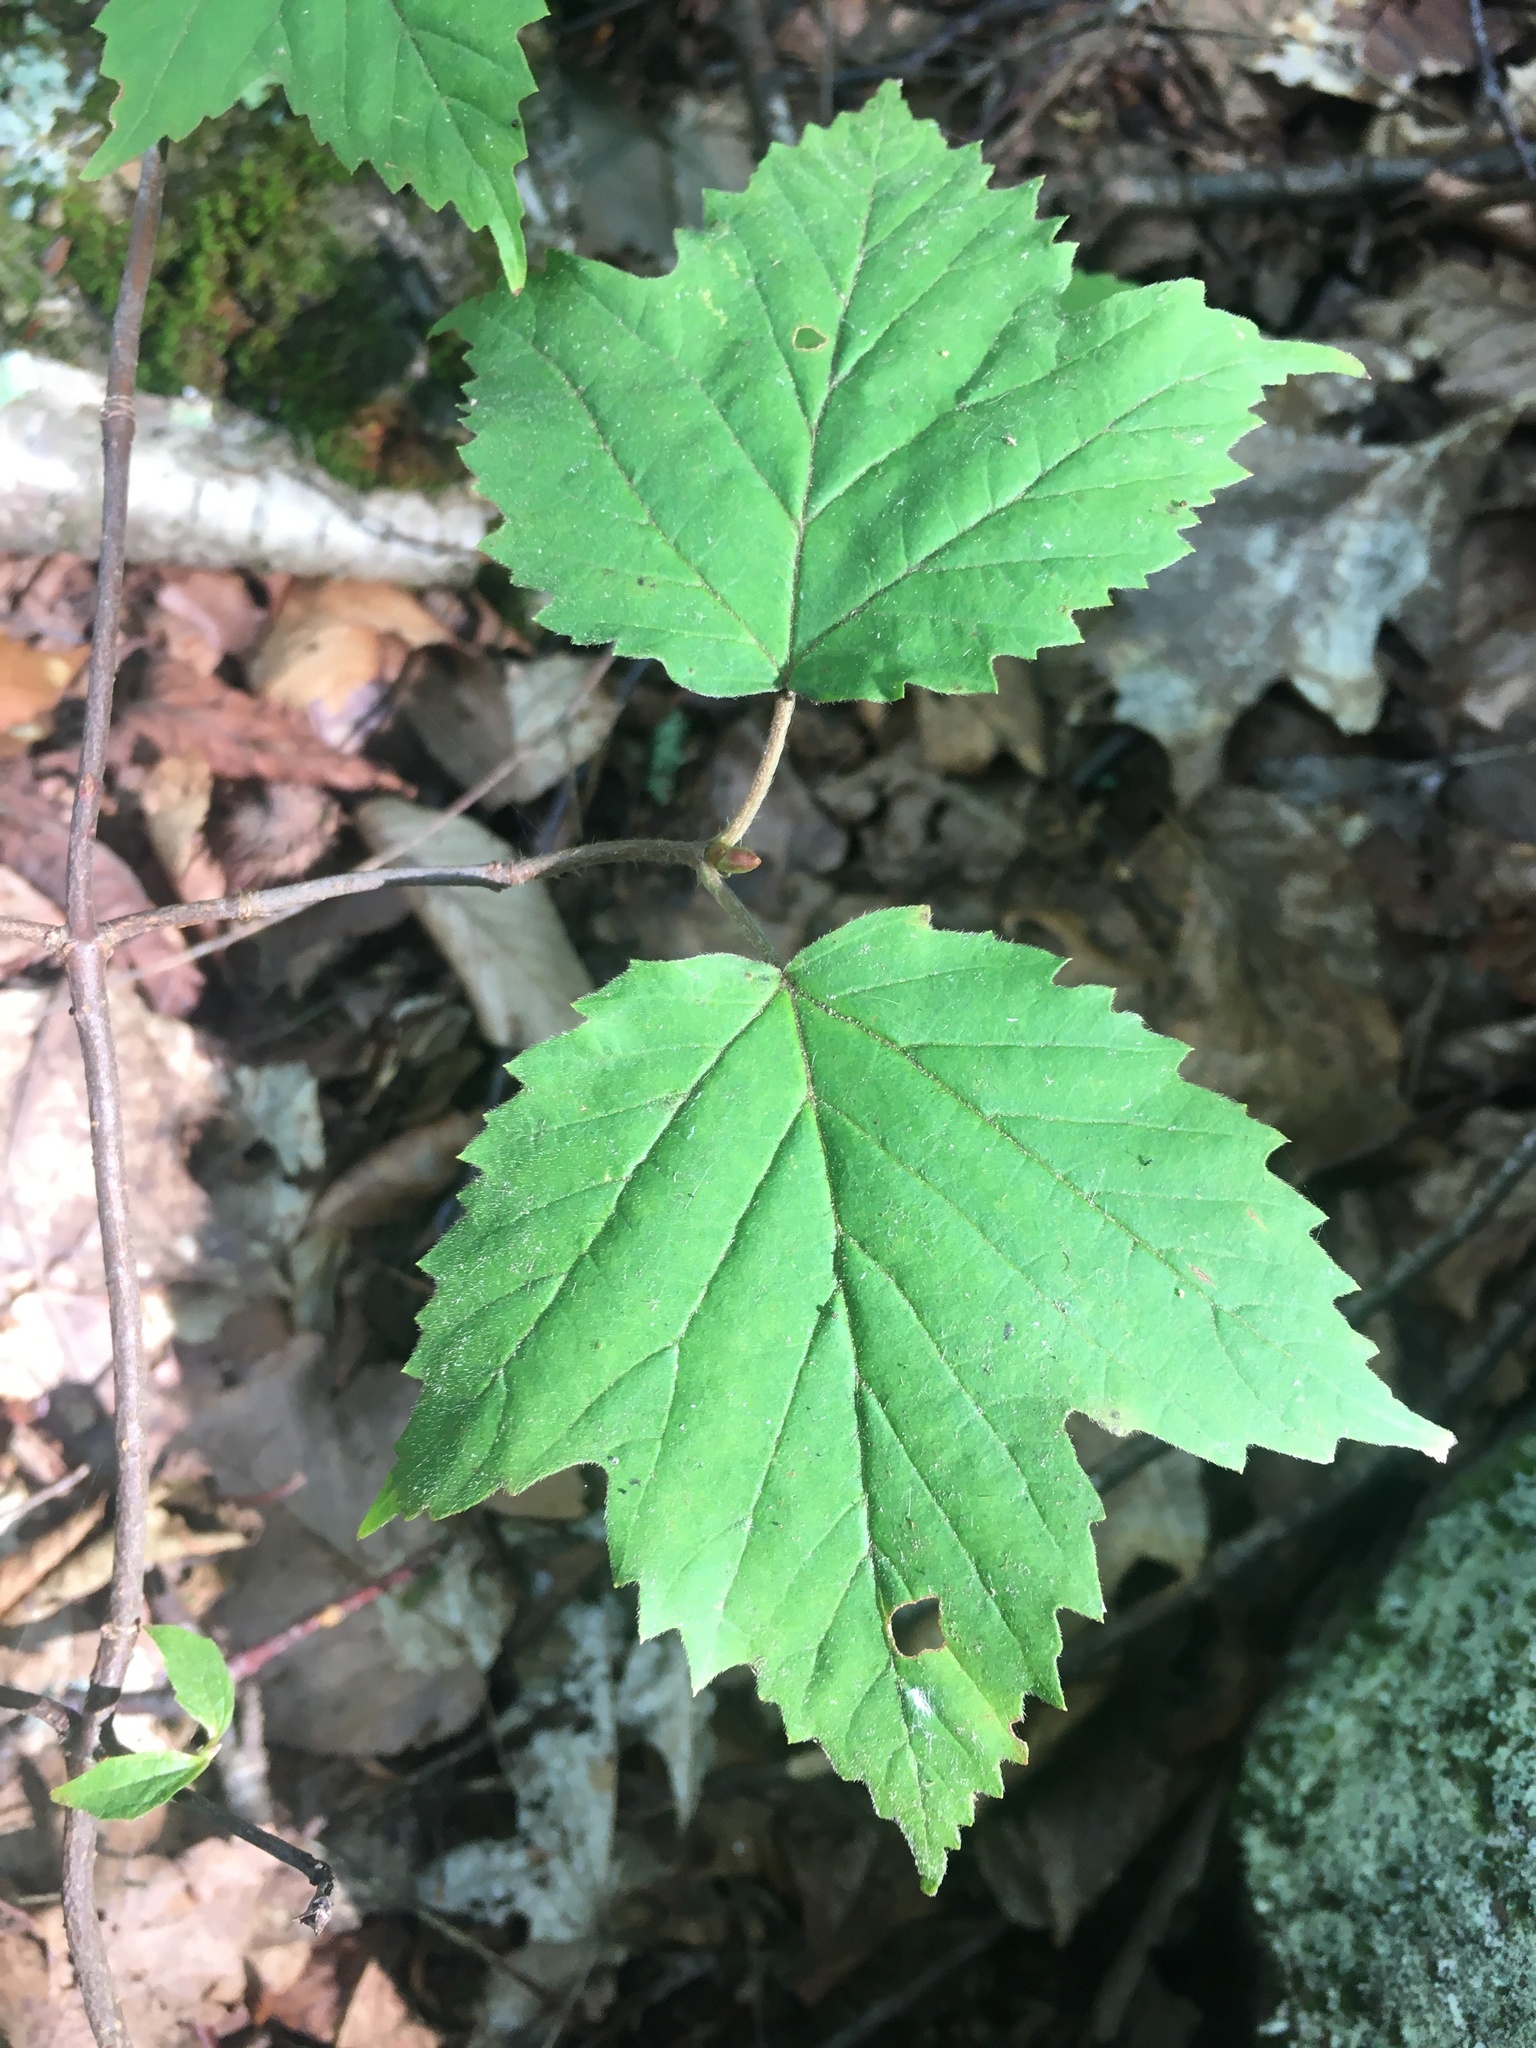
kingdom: Plantae
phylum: Tracheophyta
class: Magnoliopsida
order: Dipsacales
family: Viburnaceae
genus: Viburnum
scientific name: Viburnum acerifolium
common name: Dockmackie
